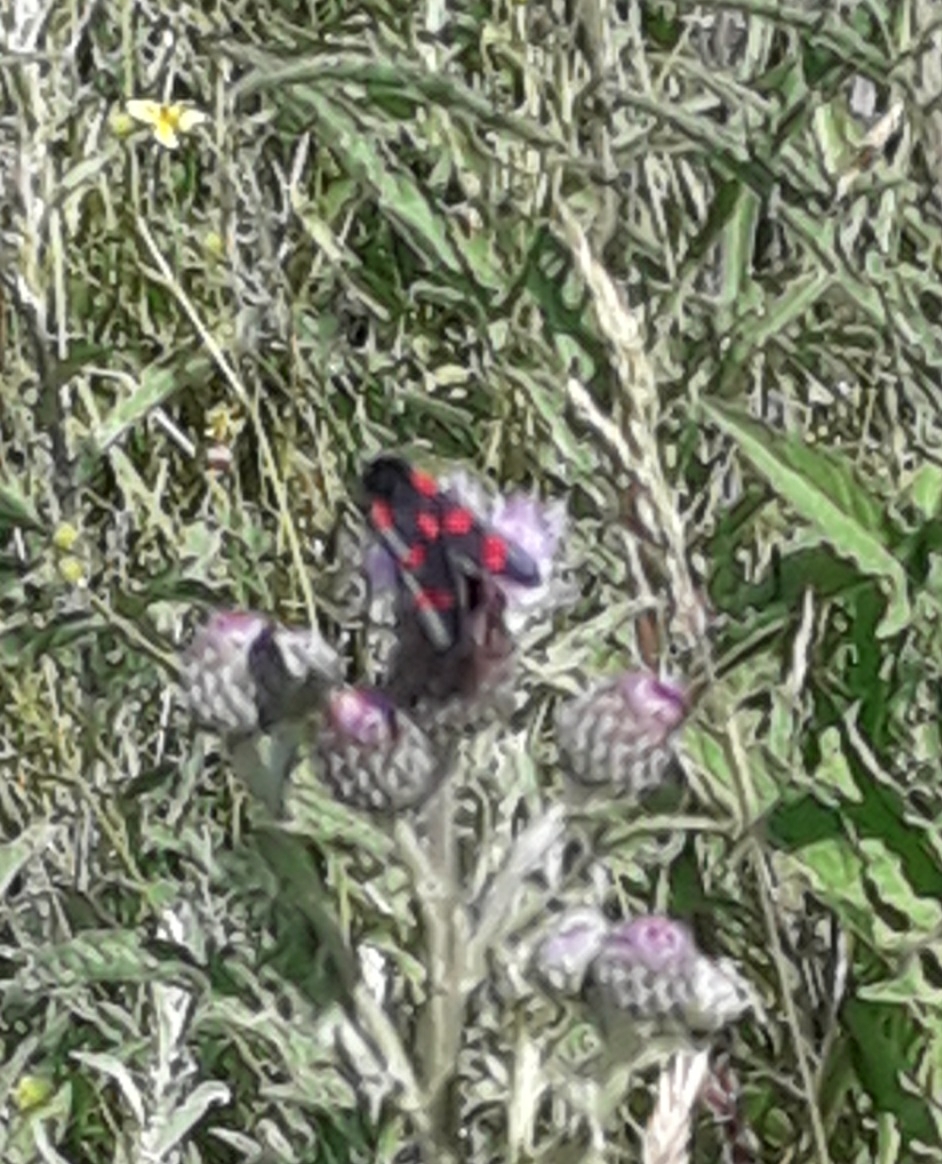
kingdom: Animalia
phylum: Arthropoda
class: Insecta
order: Lepidoptera
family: Zygaenidae
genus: Zygaena
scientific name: Zygaena filipendulae
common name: Six-spot burnet
